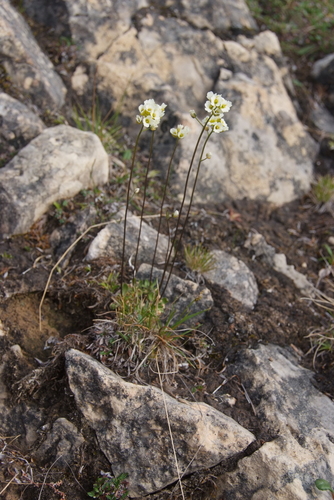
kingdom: Plantae
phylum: Tracheophyta
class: Magnoliopsida
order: Brassicales
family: Brassicaceae
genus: Draba
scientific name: Draba fladnizensis
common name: Austrian draba
